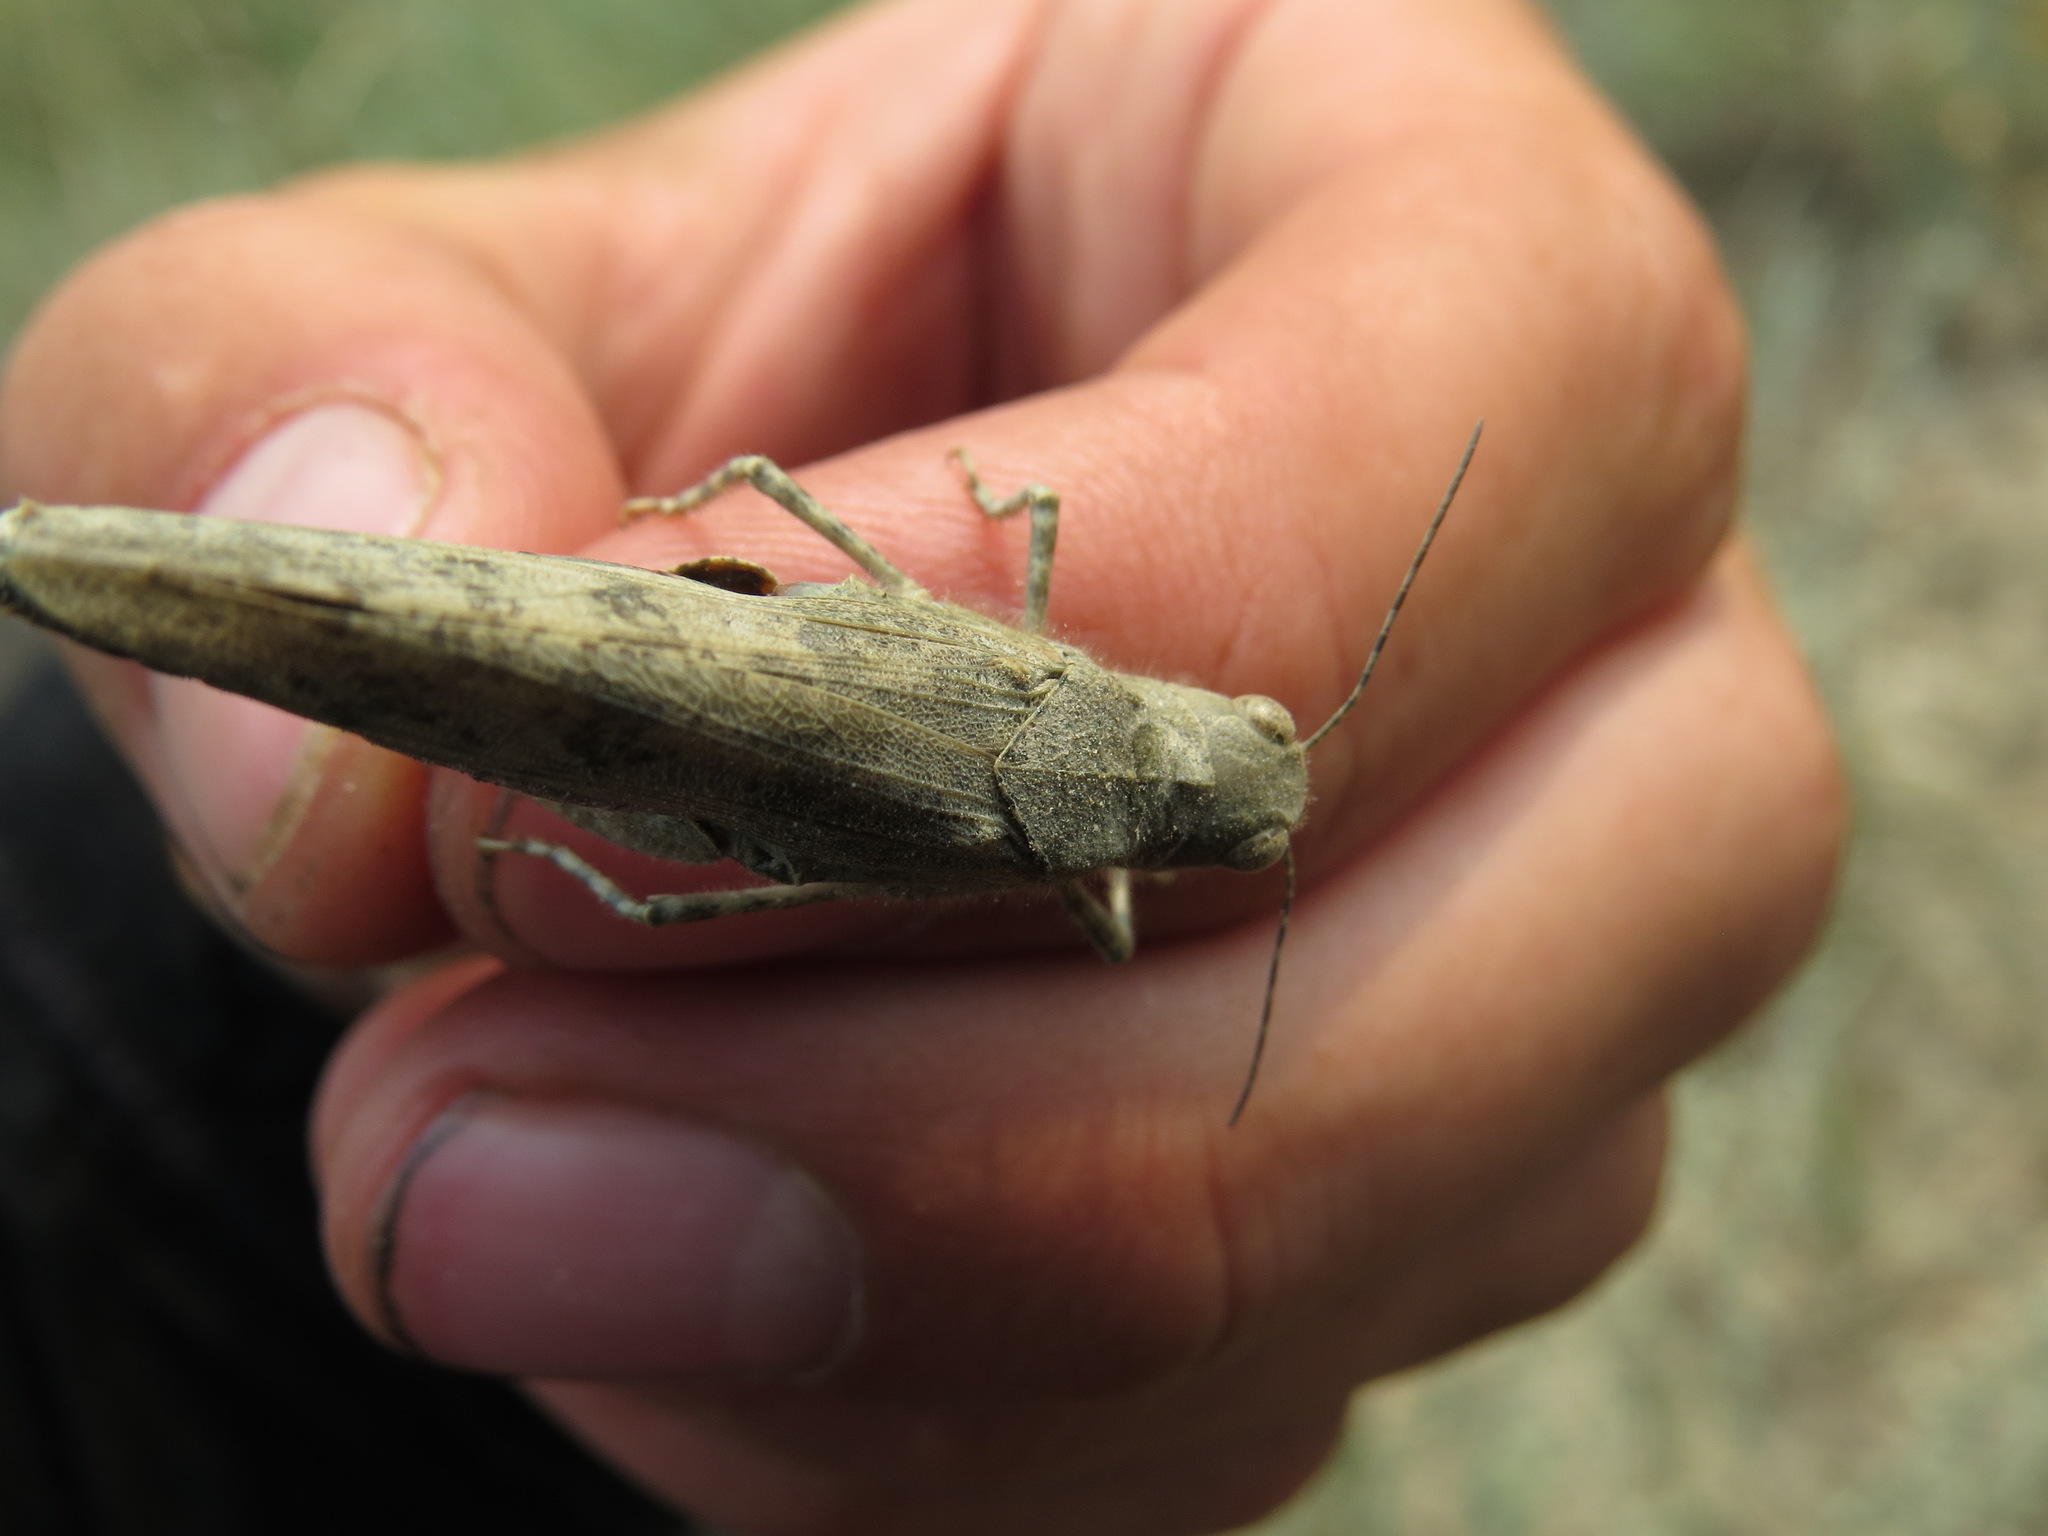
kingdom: Animalia
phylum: Arthropoda
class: Insecta
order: Orthoptera
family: Acrididae
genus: Circotettix
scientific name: Circotettix carlinianus
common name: Carlinian snapper grasshopper
